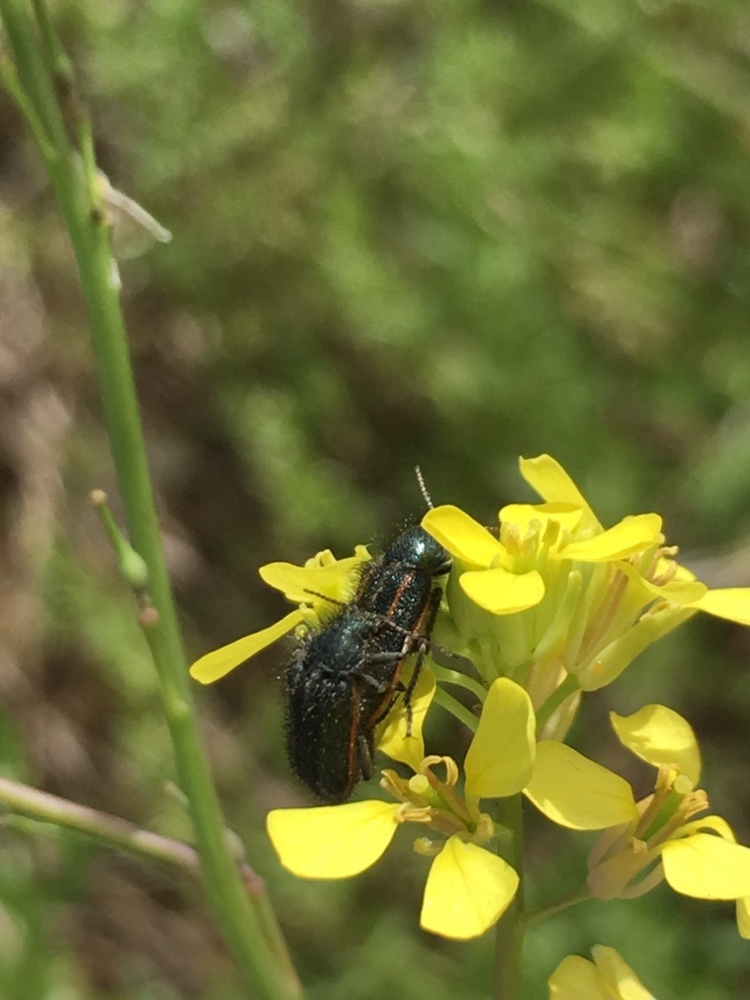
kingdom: Animalia
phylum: Arthropoda
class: Insecta
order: Coleoptera
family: Melyridae
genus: Astylus
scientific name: Astylus
